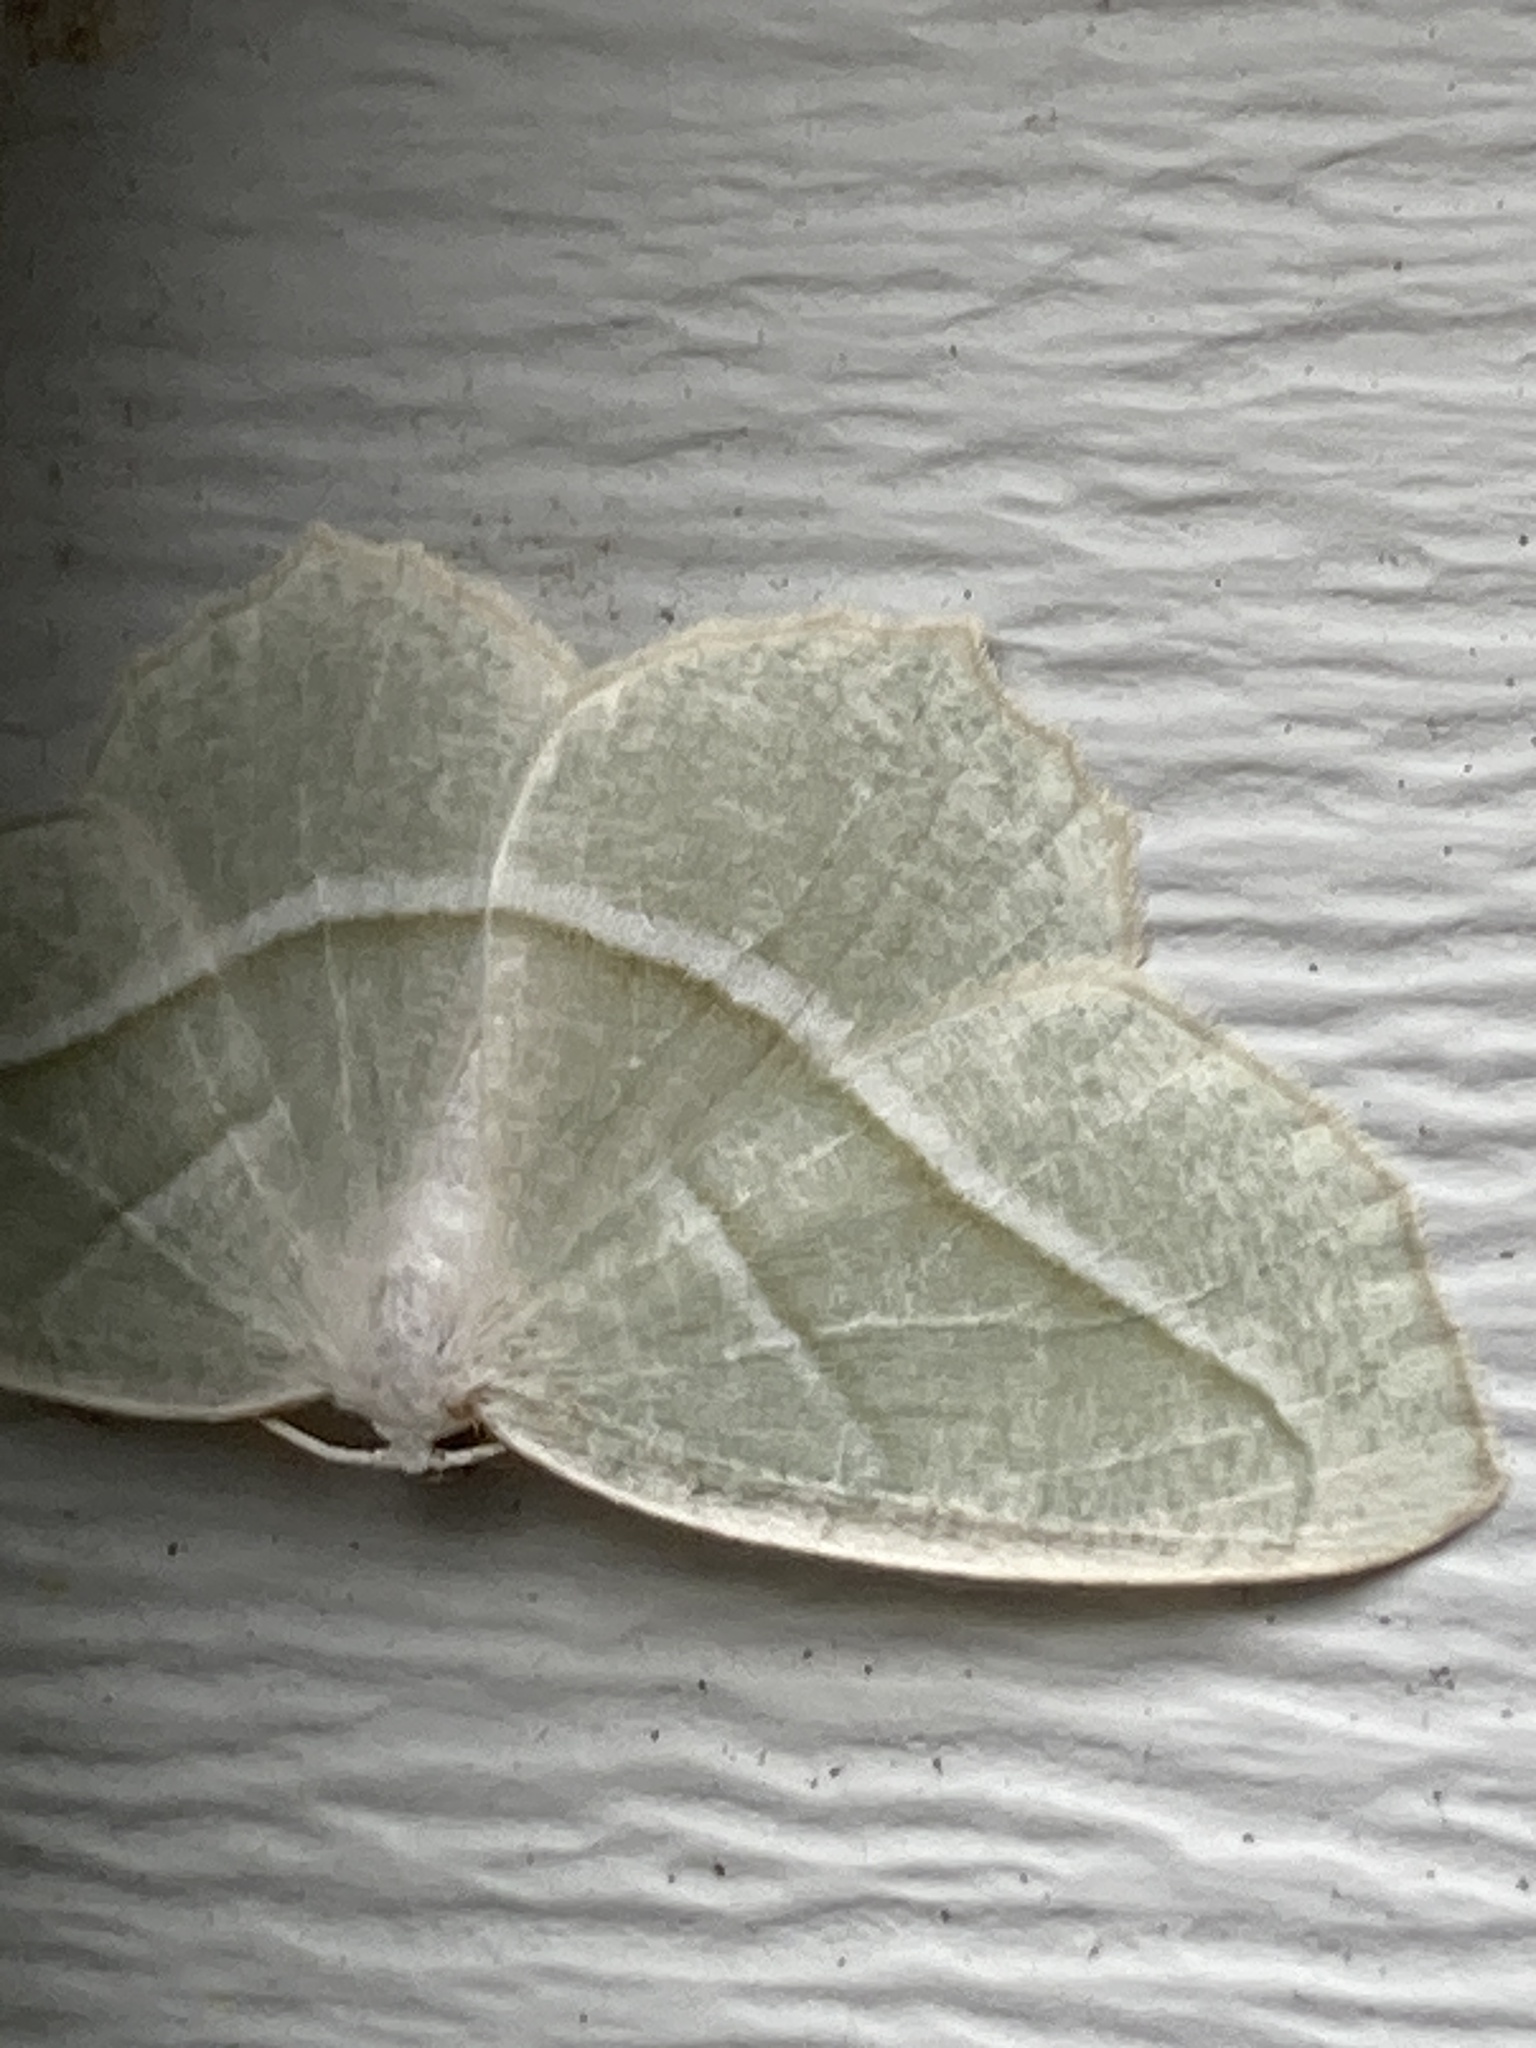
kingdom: Animalia
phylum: Arthropoda
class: Insecta
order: Lepidoptera
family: Geometridae
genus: Campaea
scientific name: Campaea perlata
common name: Fringed looper
